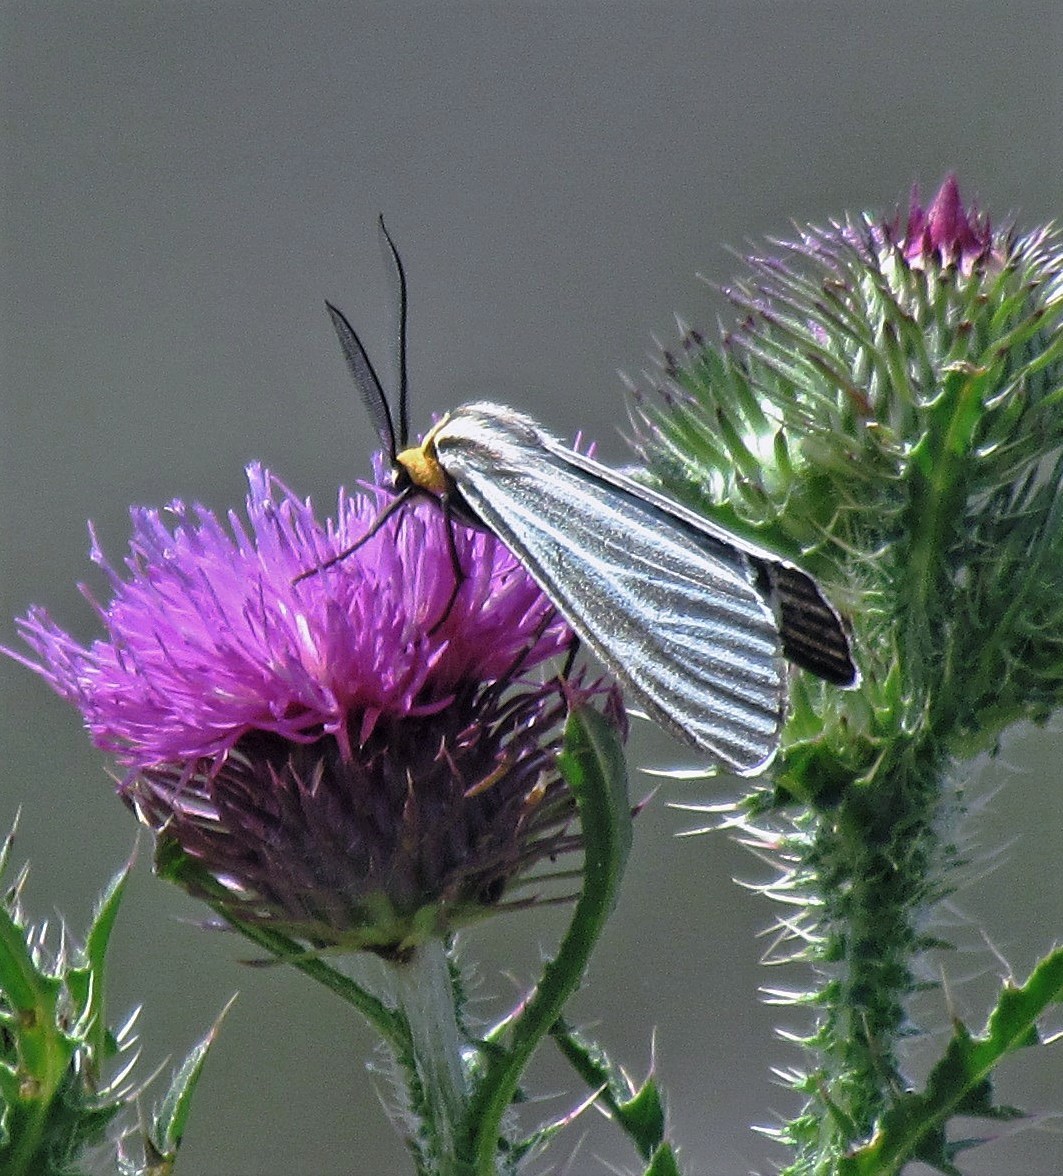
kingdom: Animalia
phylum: Arthropoda
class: Insecta
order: Lepidoptera
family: Erebidae
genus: Ctenucha
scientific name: Ctenucha vittigerum
